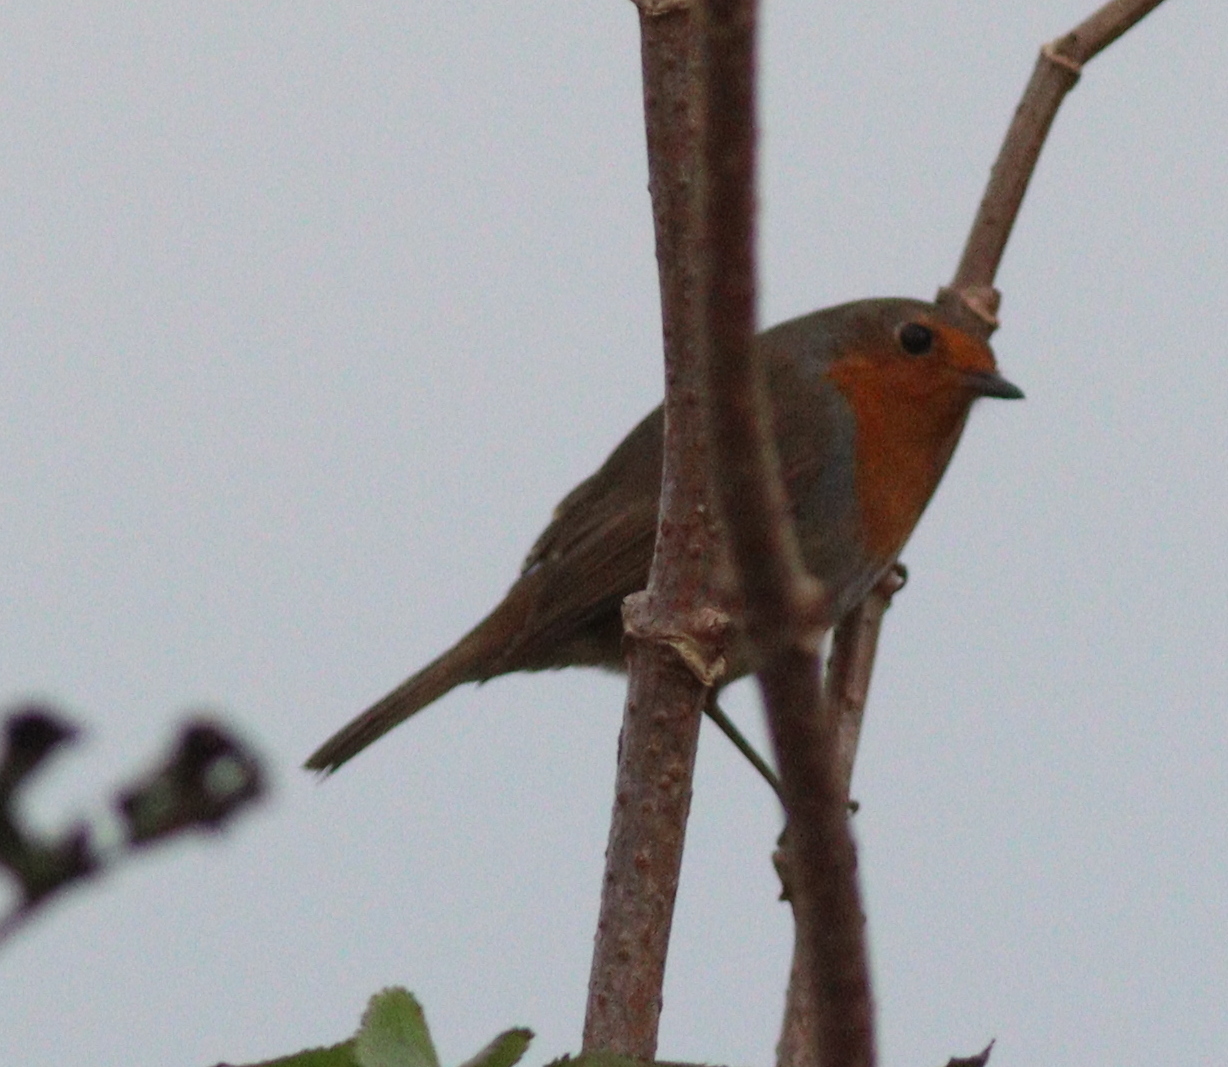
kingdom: Animalia
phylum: Chordata
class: Aves
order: Passeriformes
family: Muscicapidae
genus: Erithacus
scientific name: Erithacus rubecula
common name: European robin
